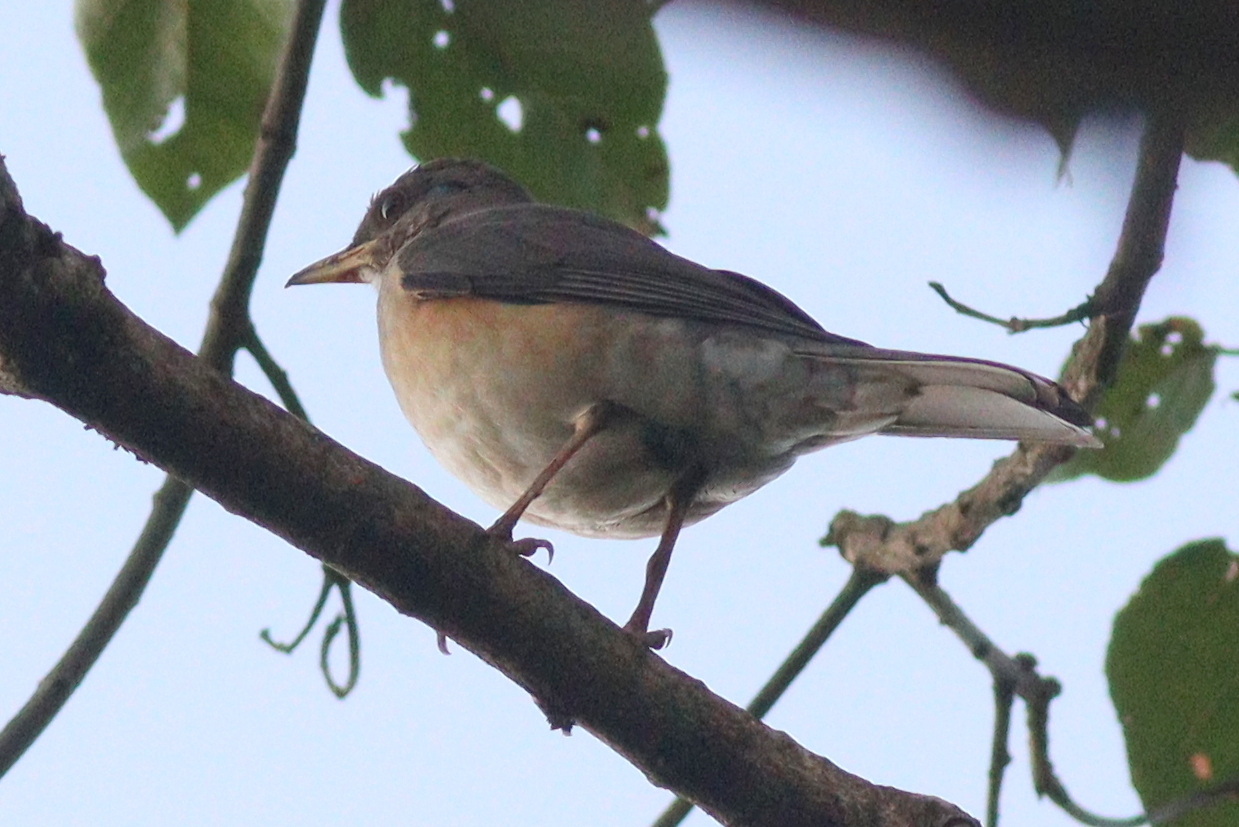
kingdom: Animalia
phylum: Chordata
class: Aves
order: Passeriformes
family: Turdidae
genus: Turdus
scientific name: Turdus pelios
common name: African thrush
